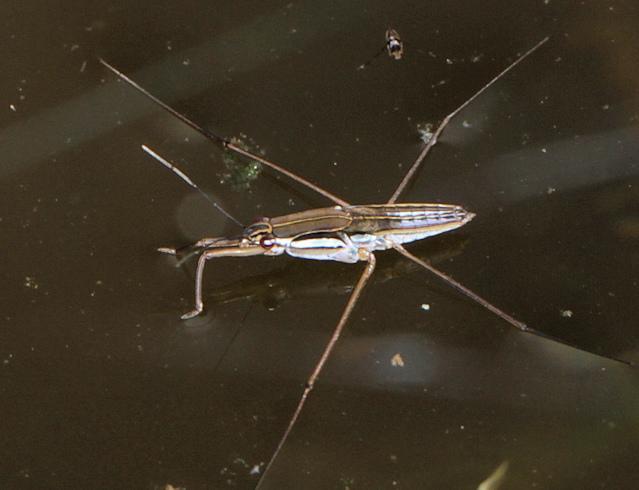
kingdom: Animalia
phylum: Arthropoda
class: Insecta
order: Hemiptera
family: Gerridae
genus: Limnogonoides
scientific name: Limnogonoides
